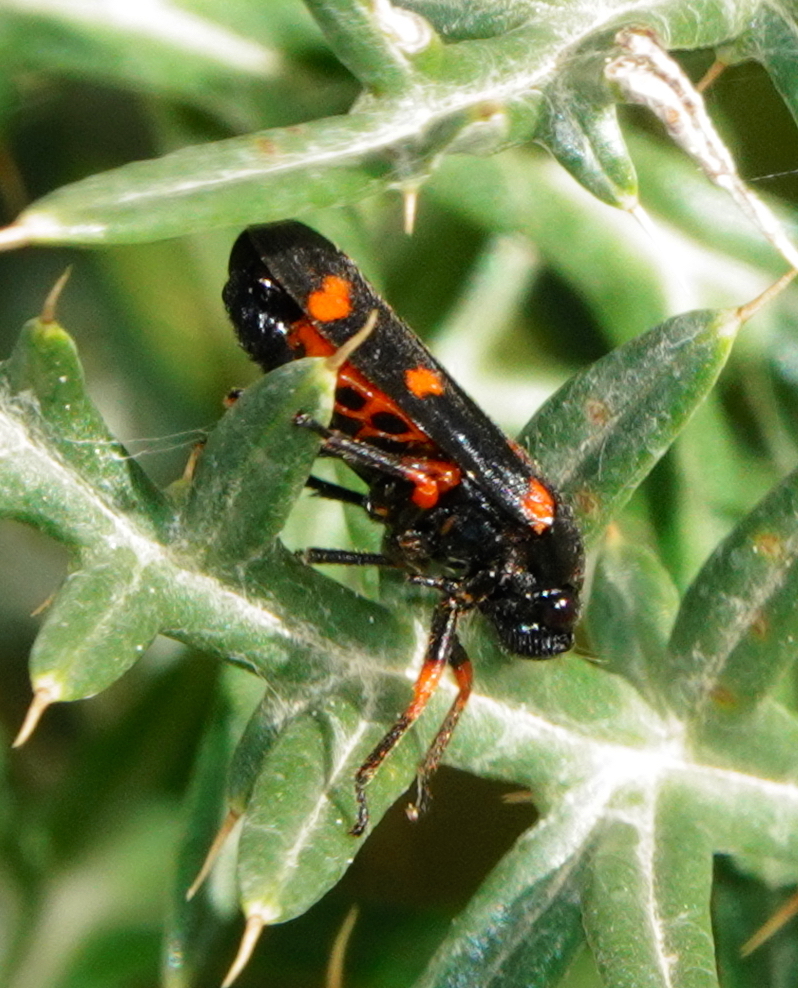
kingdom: Animalia
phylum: Arthropoda
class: Insecta
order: Hemiptera
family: Cercopidae
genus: Cercopis
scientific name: Cercopis intermedia
